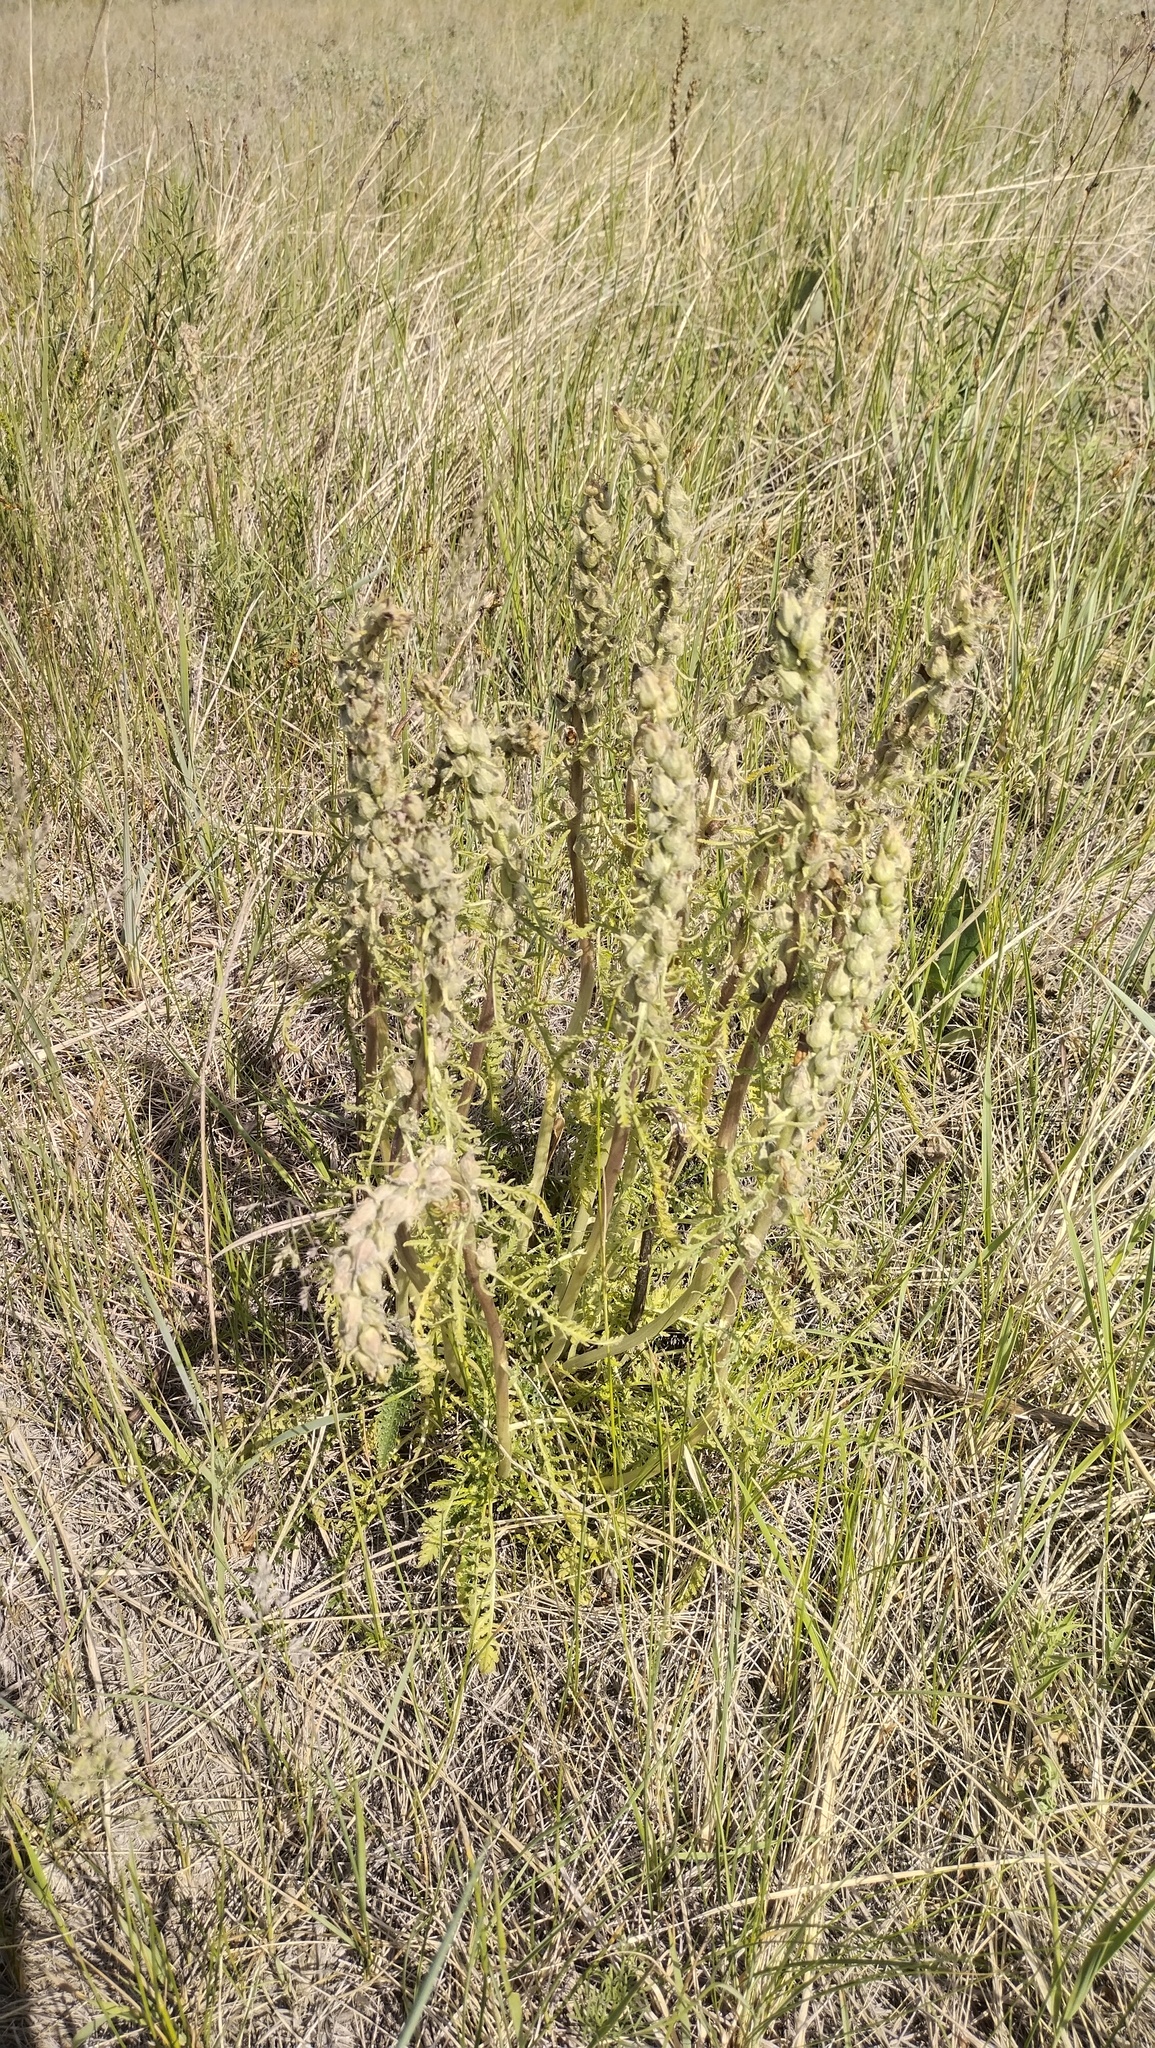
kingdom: Plantae
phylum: Tracheophyta
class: Magnoliopsida
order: Lamiales
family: Orobanchaceae
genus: Pedicularis
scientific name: Pedicularis dasystachys
